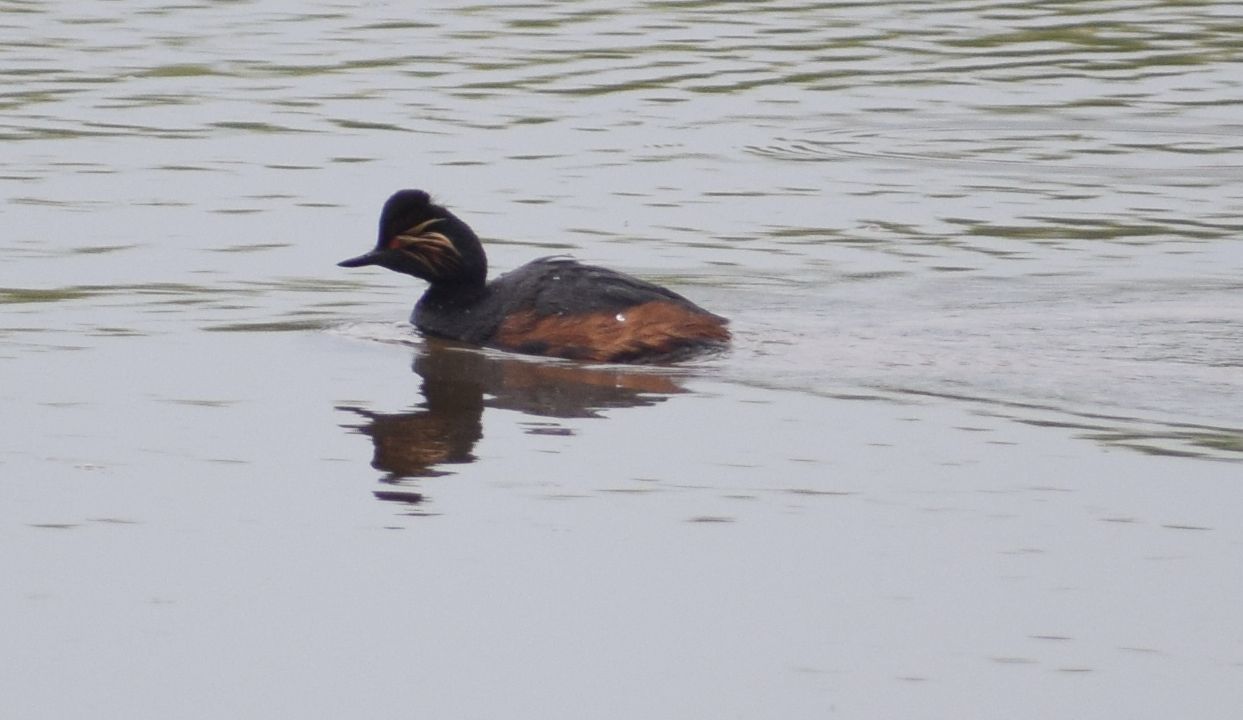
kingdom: Animalia
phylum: Chordata
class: Aves
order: Podicipediformes
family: Podicipedidae
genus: Podiceps
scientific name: Podiceps nigricollis
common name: Black-necked grebe
